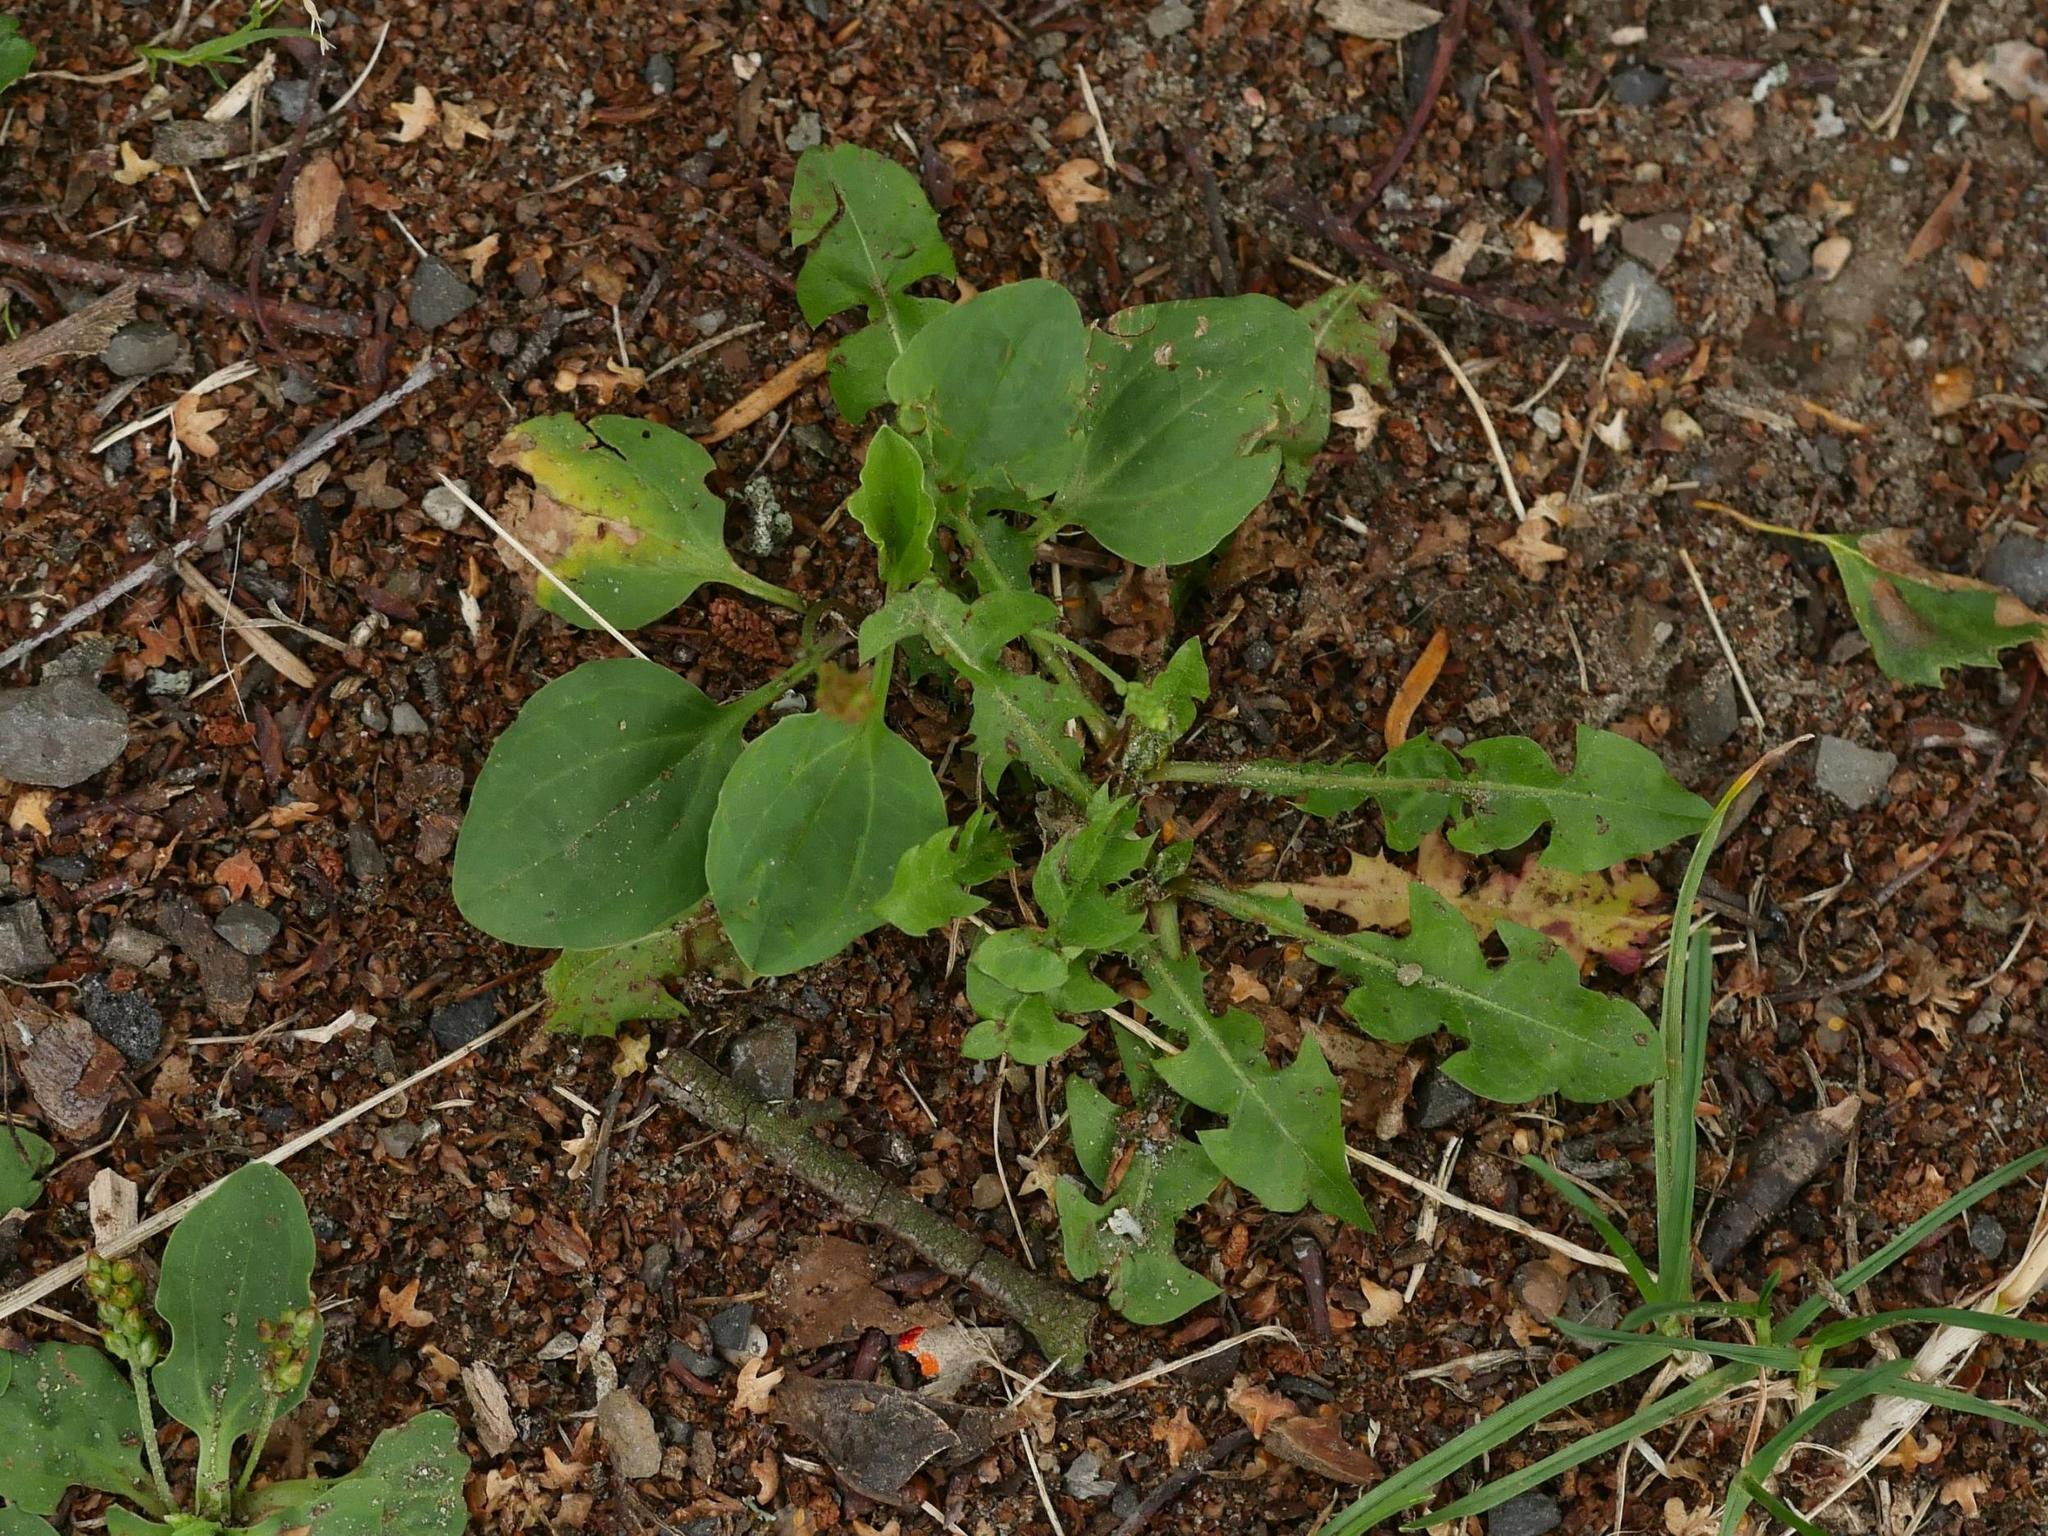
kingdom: Plantae
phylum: Tracheophyta
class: Magnoliopsida
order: Lamiales
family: Plantaginaceae
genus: Plantago
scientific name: Plantago major
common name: Common plantain
